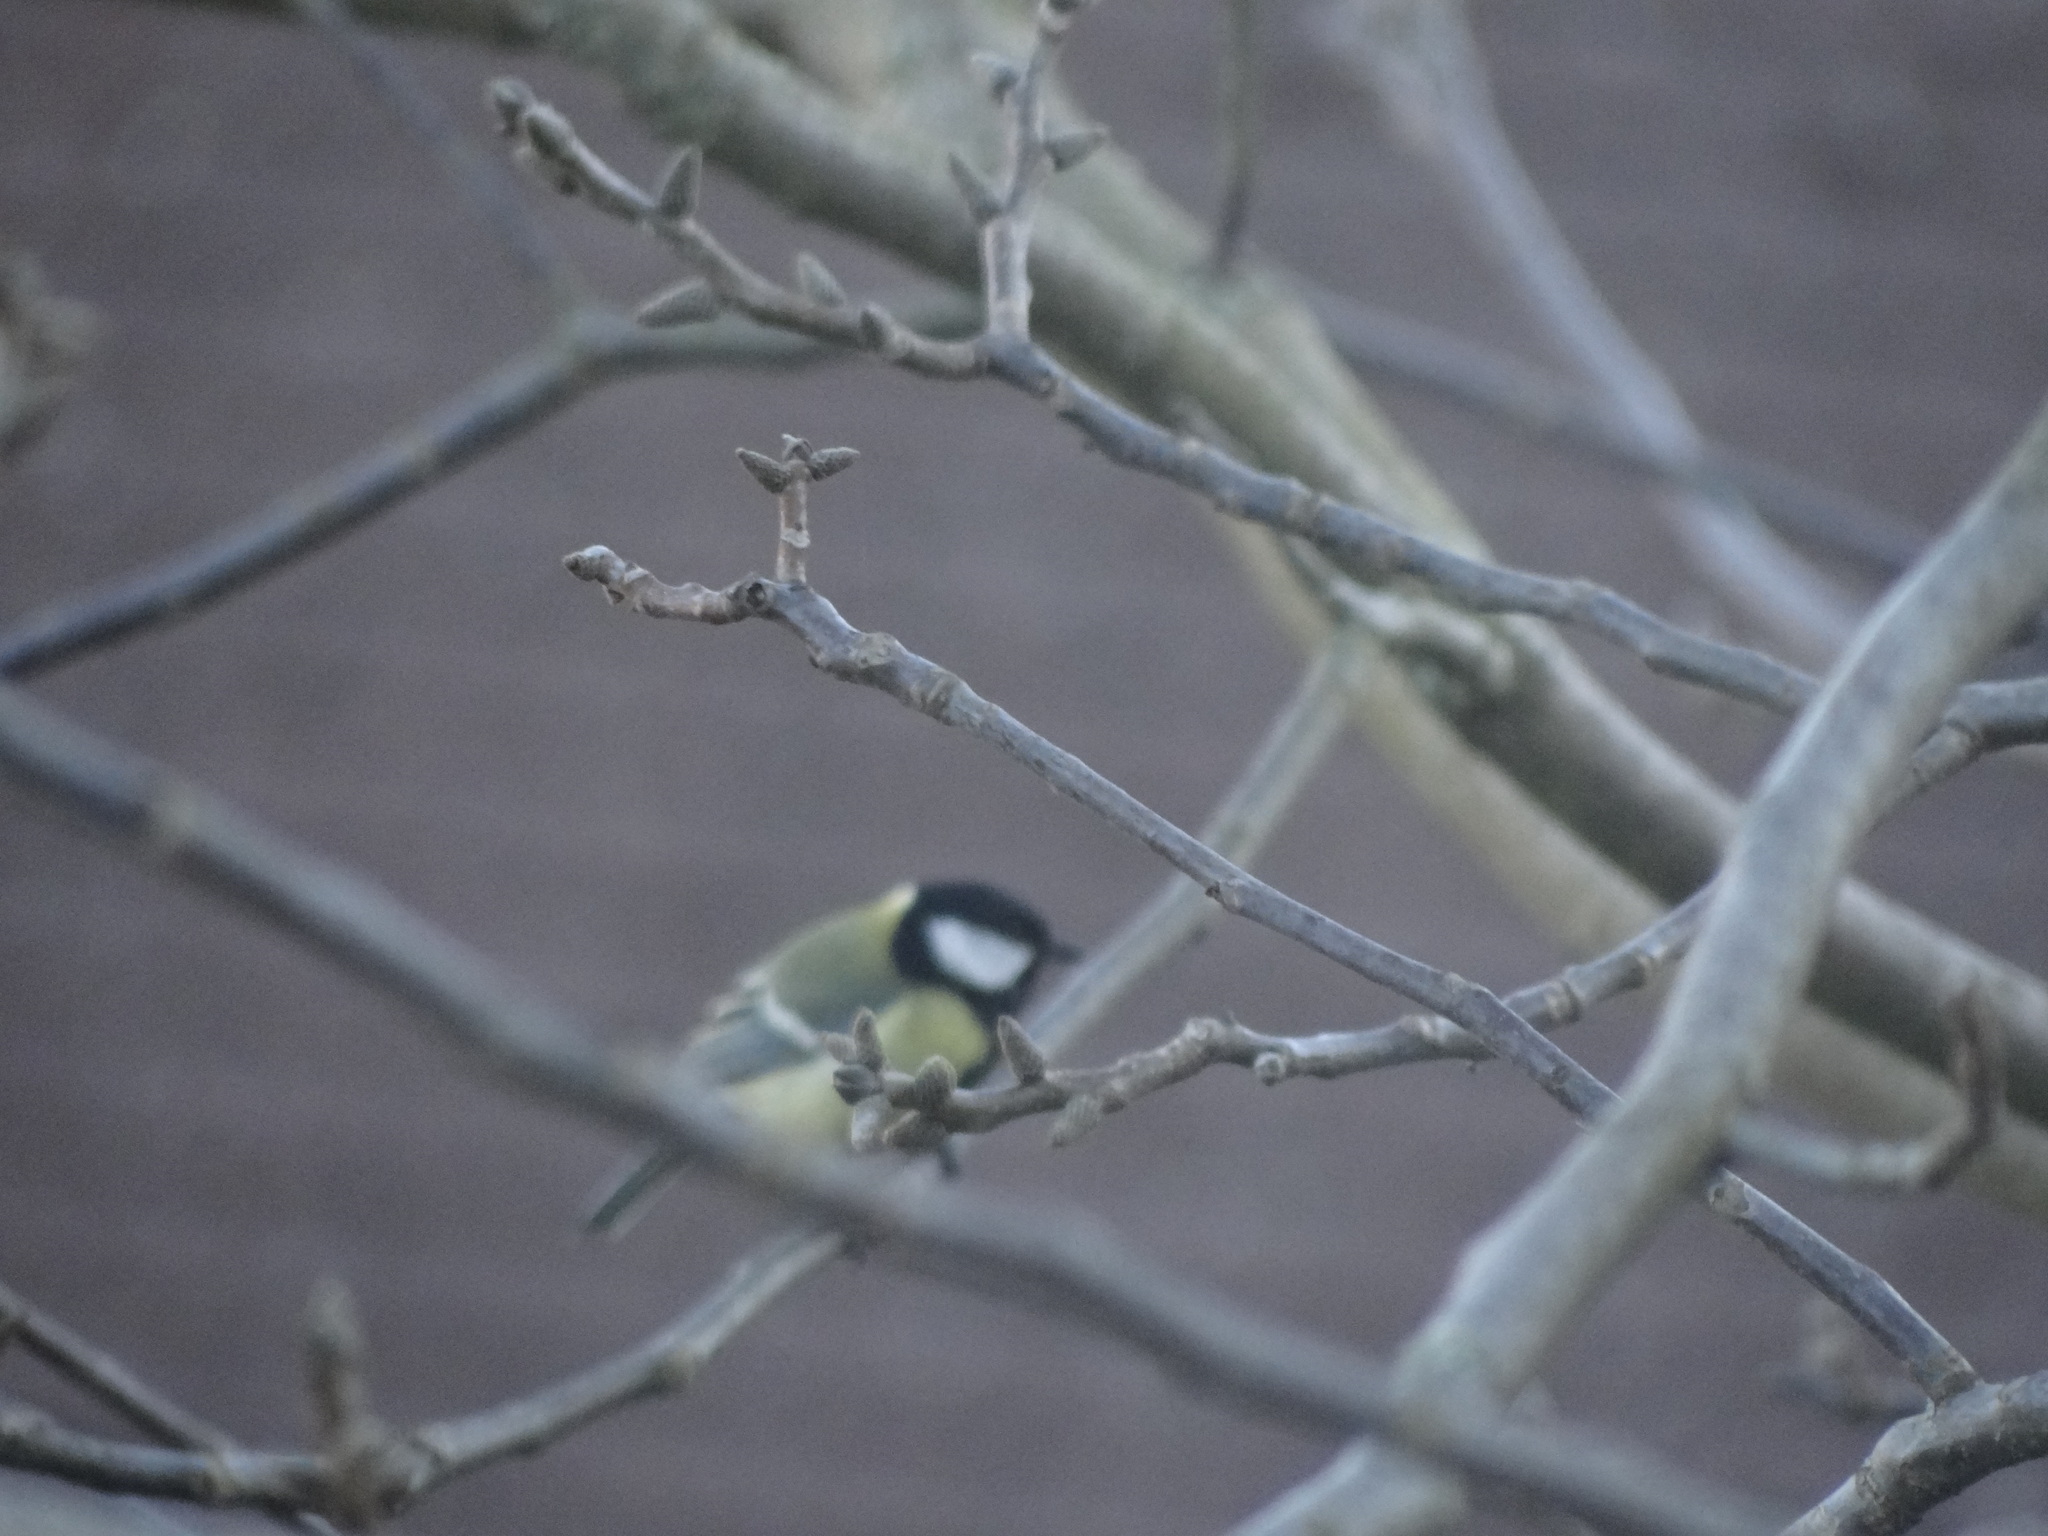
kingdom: Animalia
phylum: Chordata
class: Aves
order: Passeriformes
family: Paridae
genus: Parus
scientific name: Parus major
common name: Great tit
